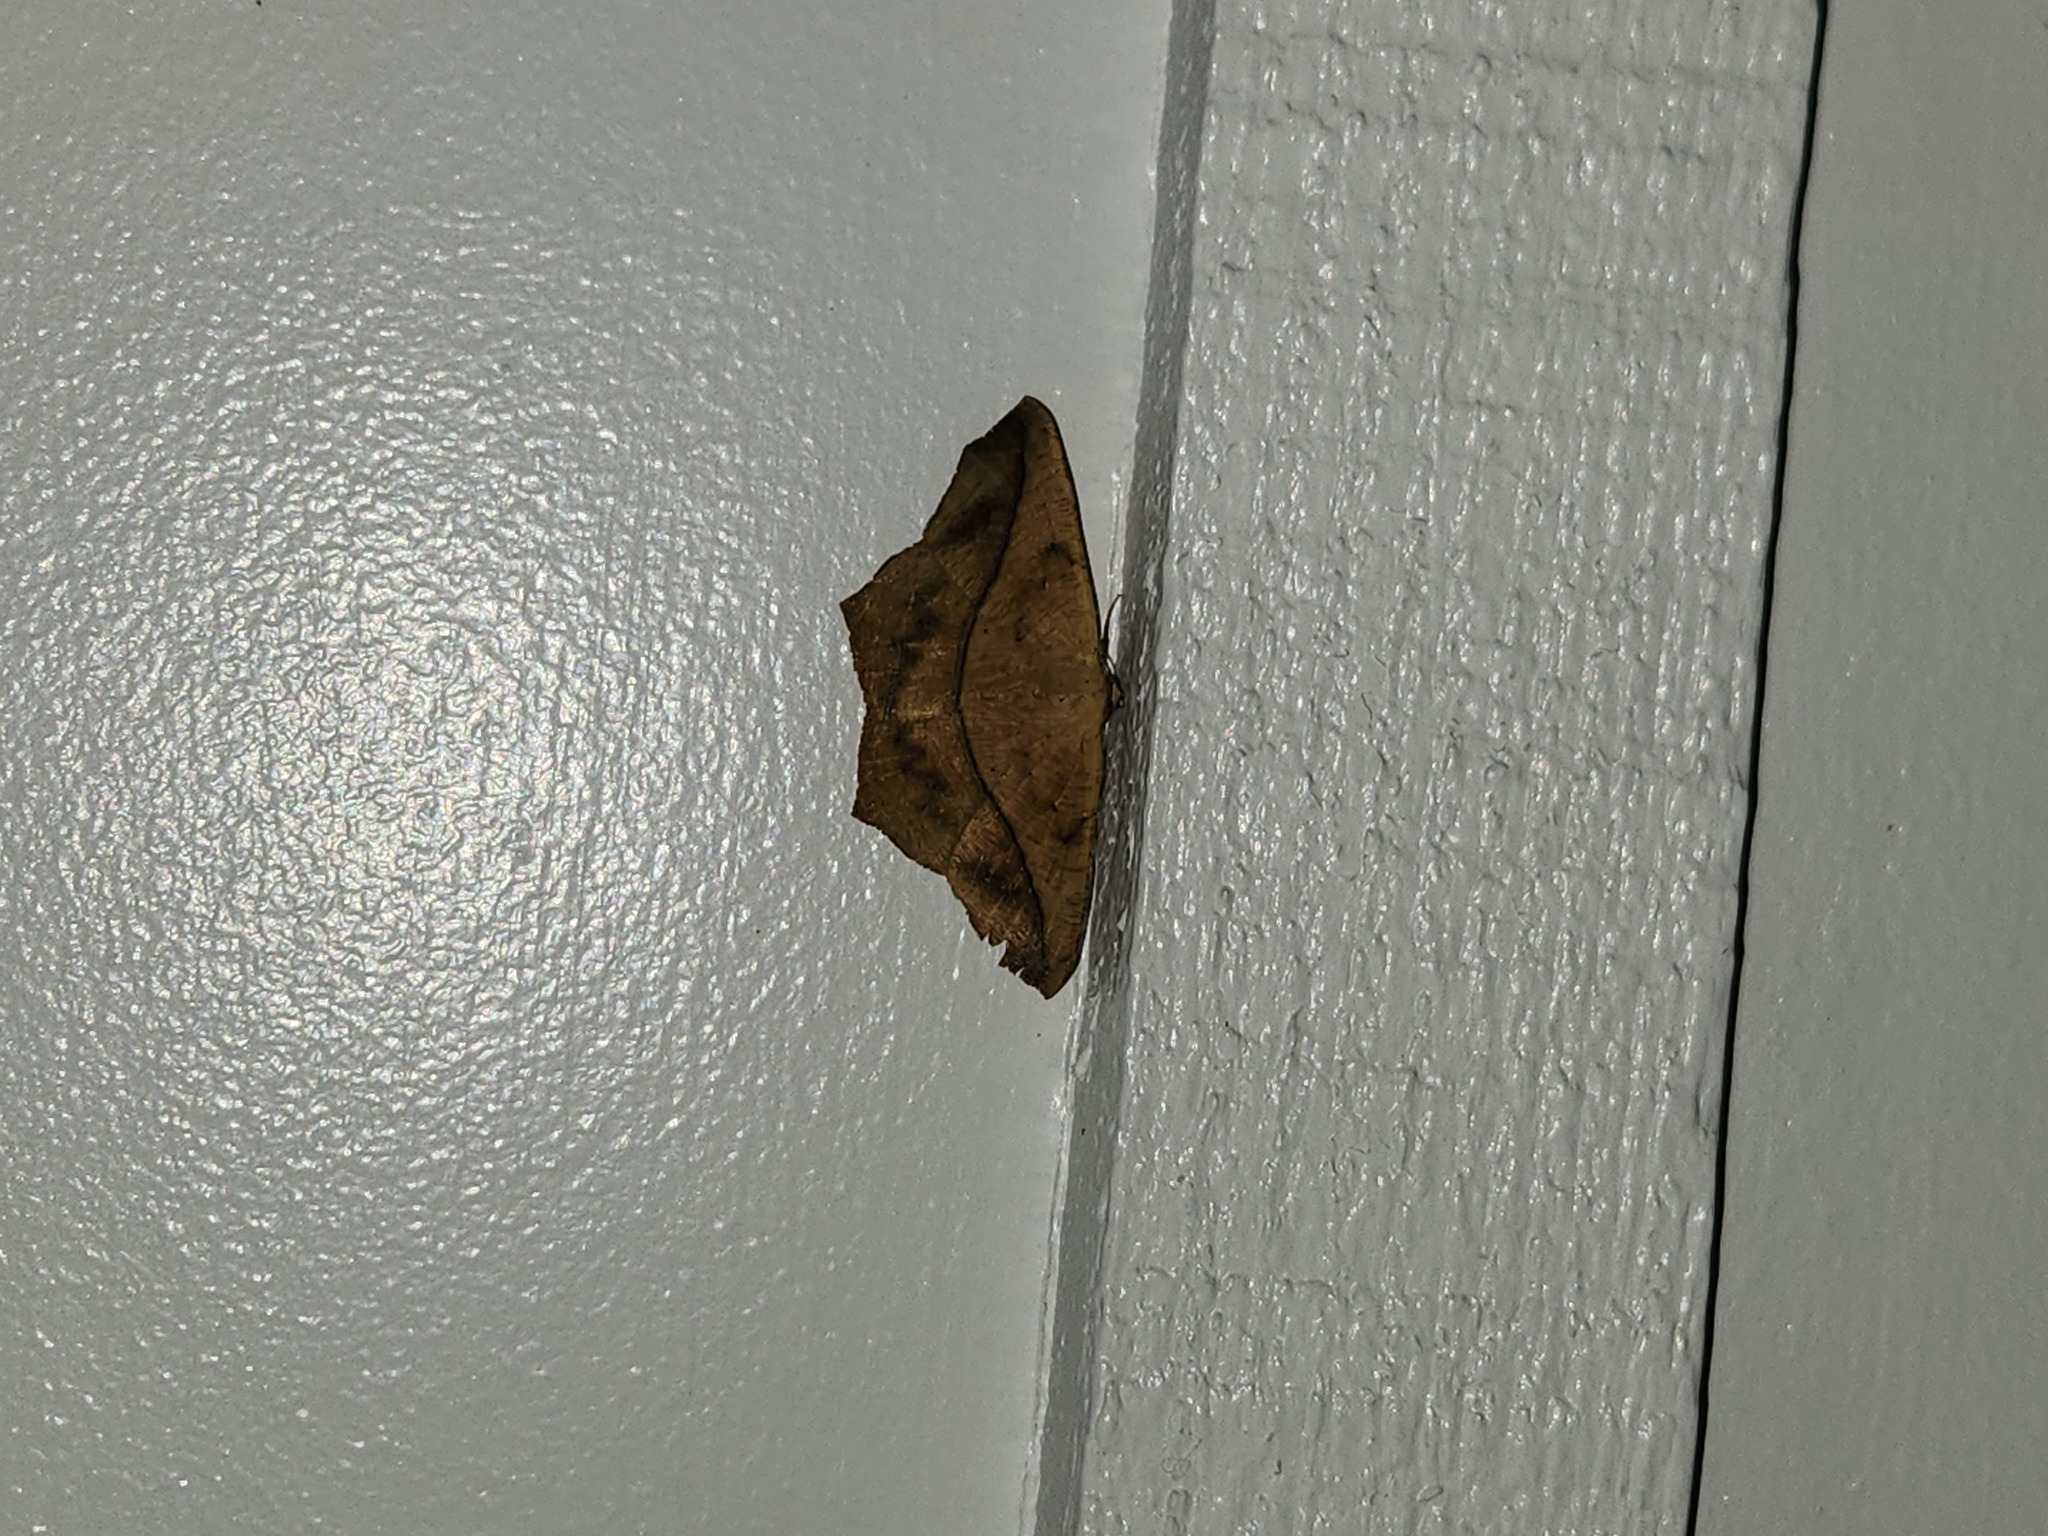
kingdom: Animalia
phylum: Arthropoda
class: Insecta
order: Lepidoptera
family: Geometridae
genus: Prochoerodes
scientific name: Prochoerodes lineola
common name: Large maple spanworm
